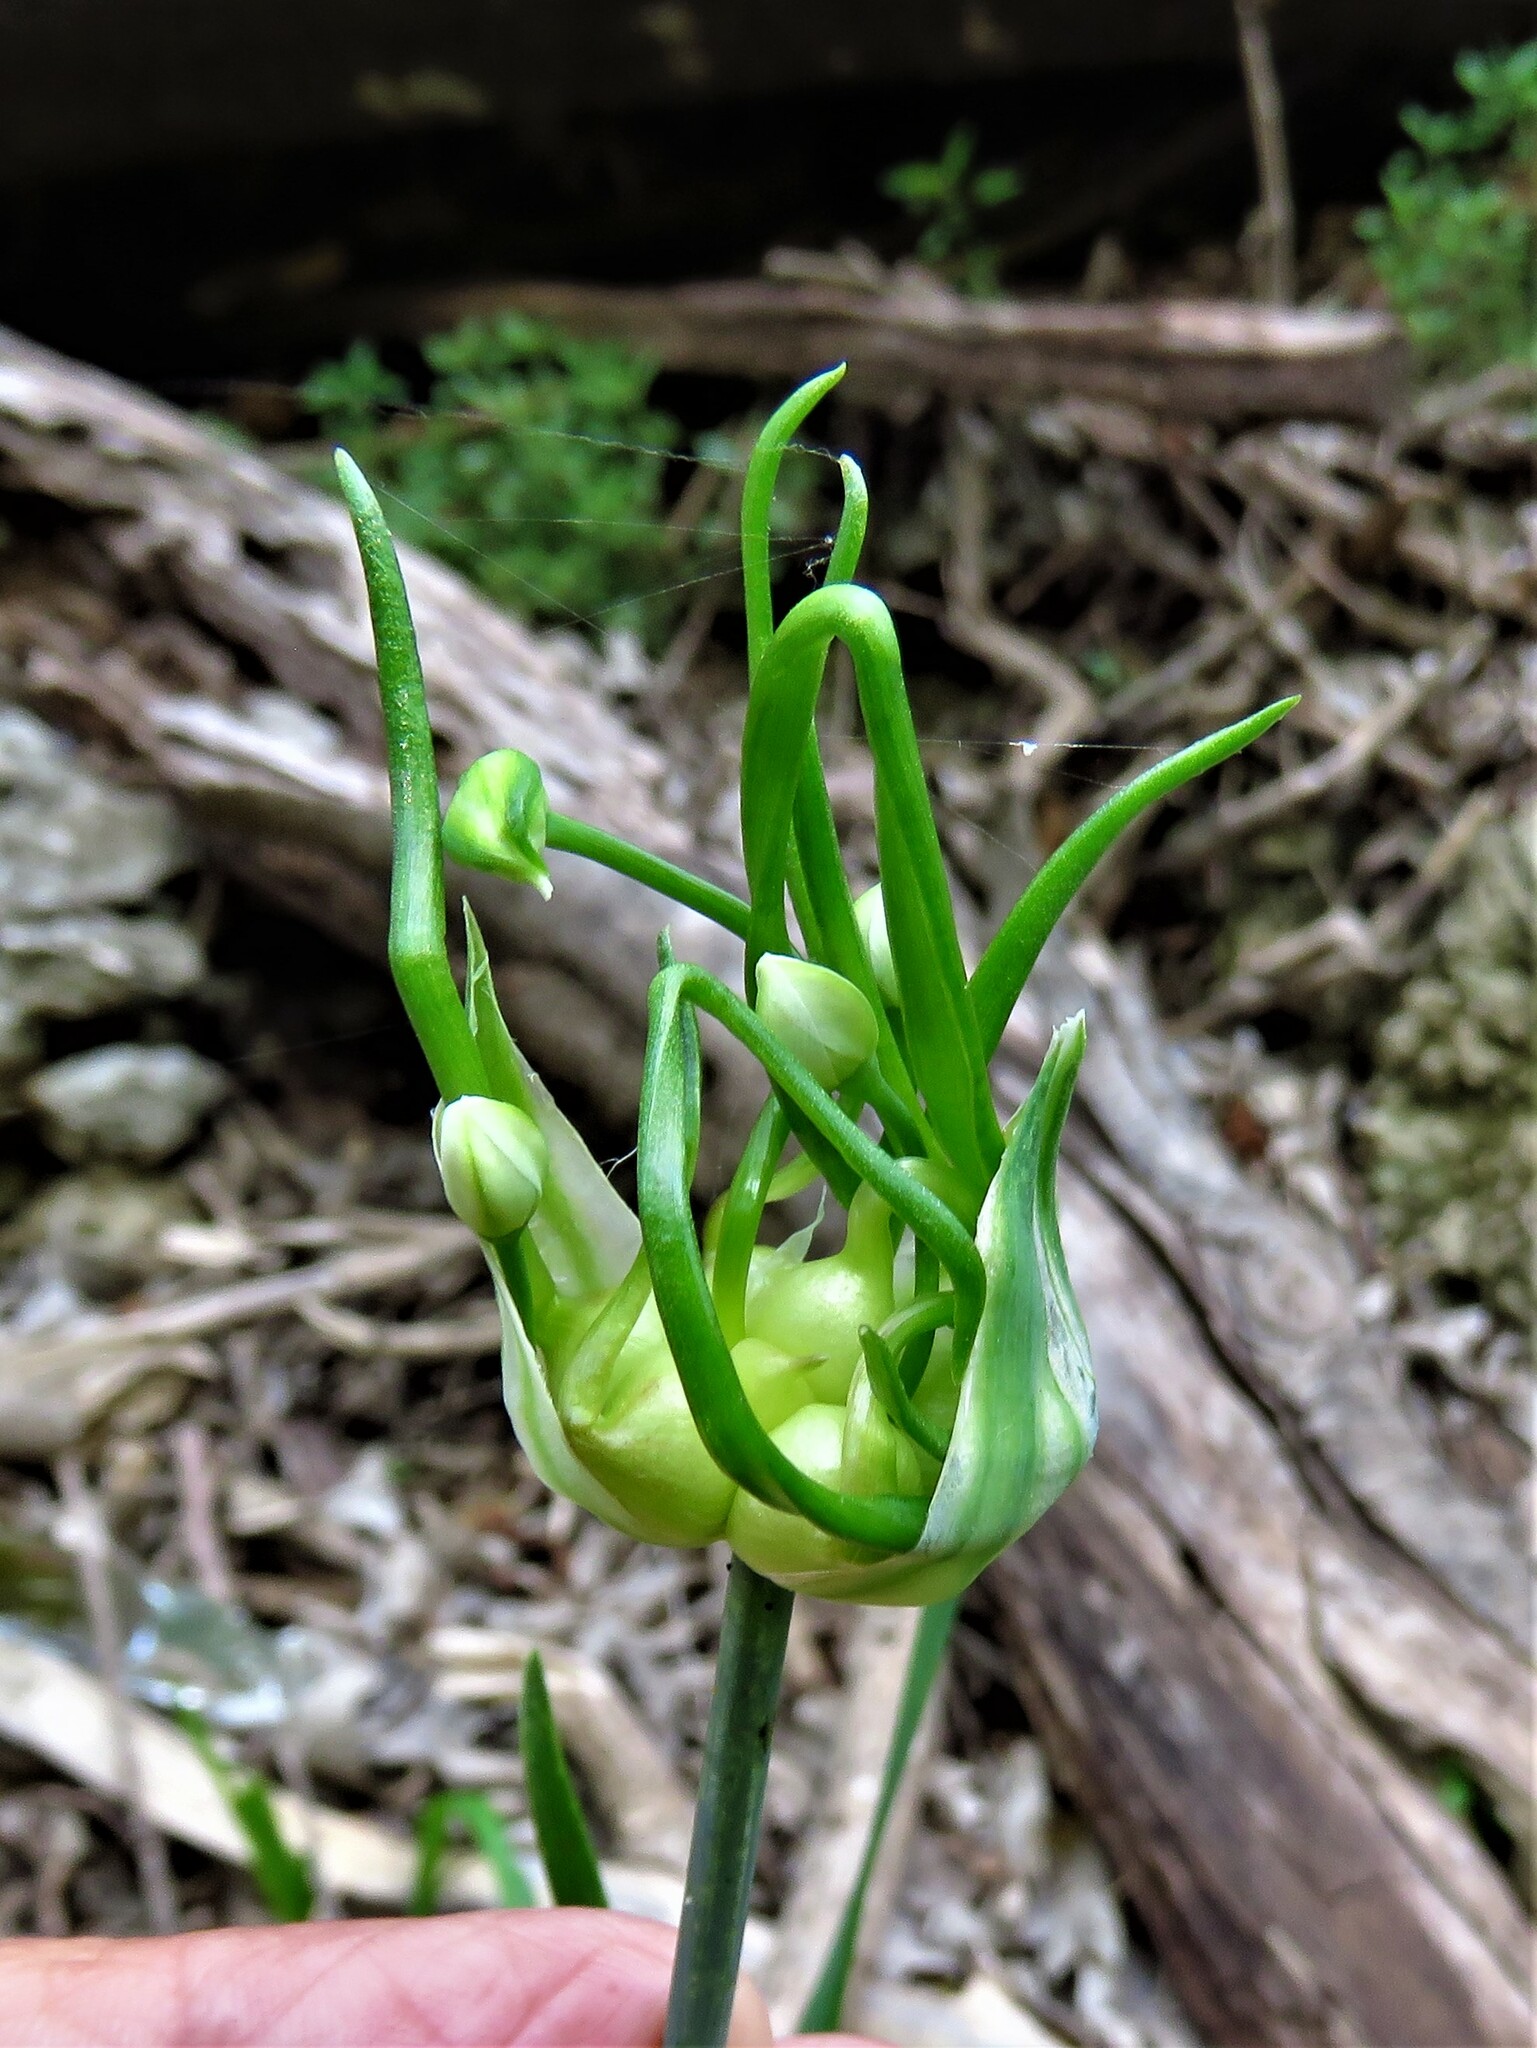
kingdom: Plantae
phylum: Tracheophyta
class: Liliopsida
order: Asparagales
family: Amaryllidaceae
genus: Allium
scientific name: Allium canadense
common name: Meadow garlic
